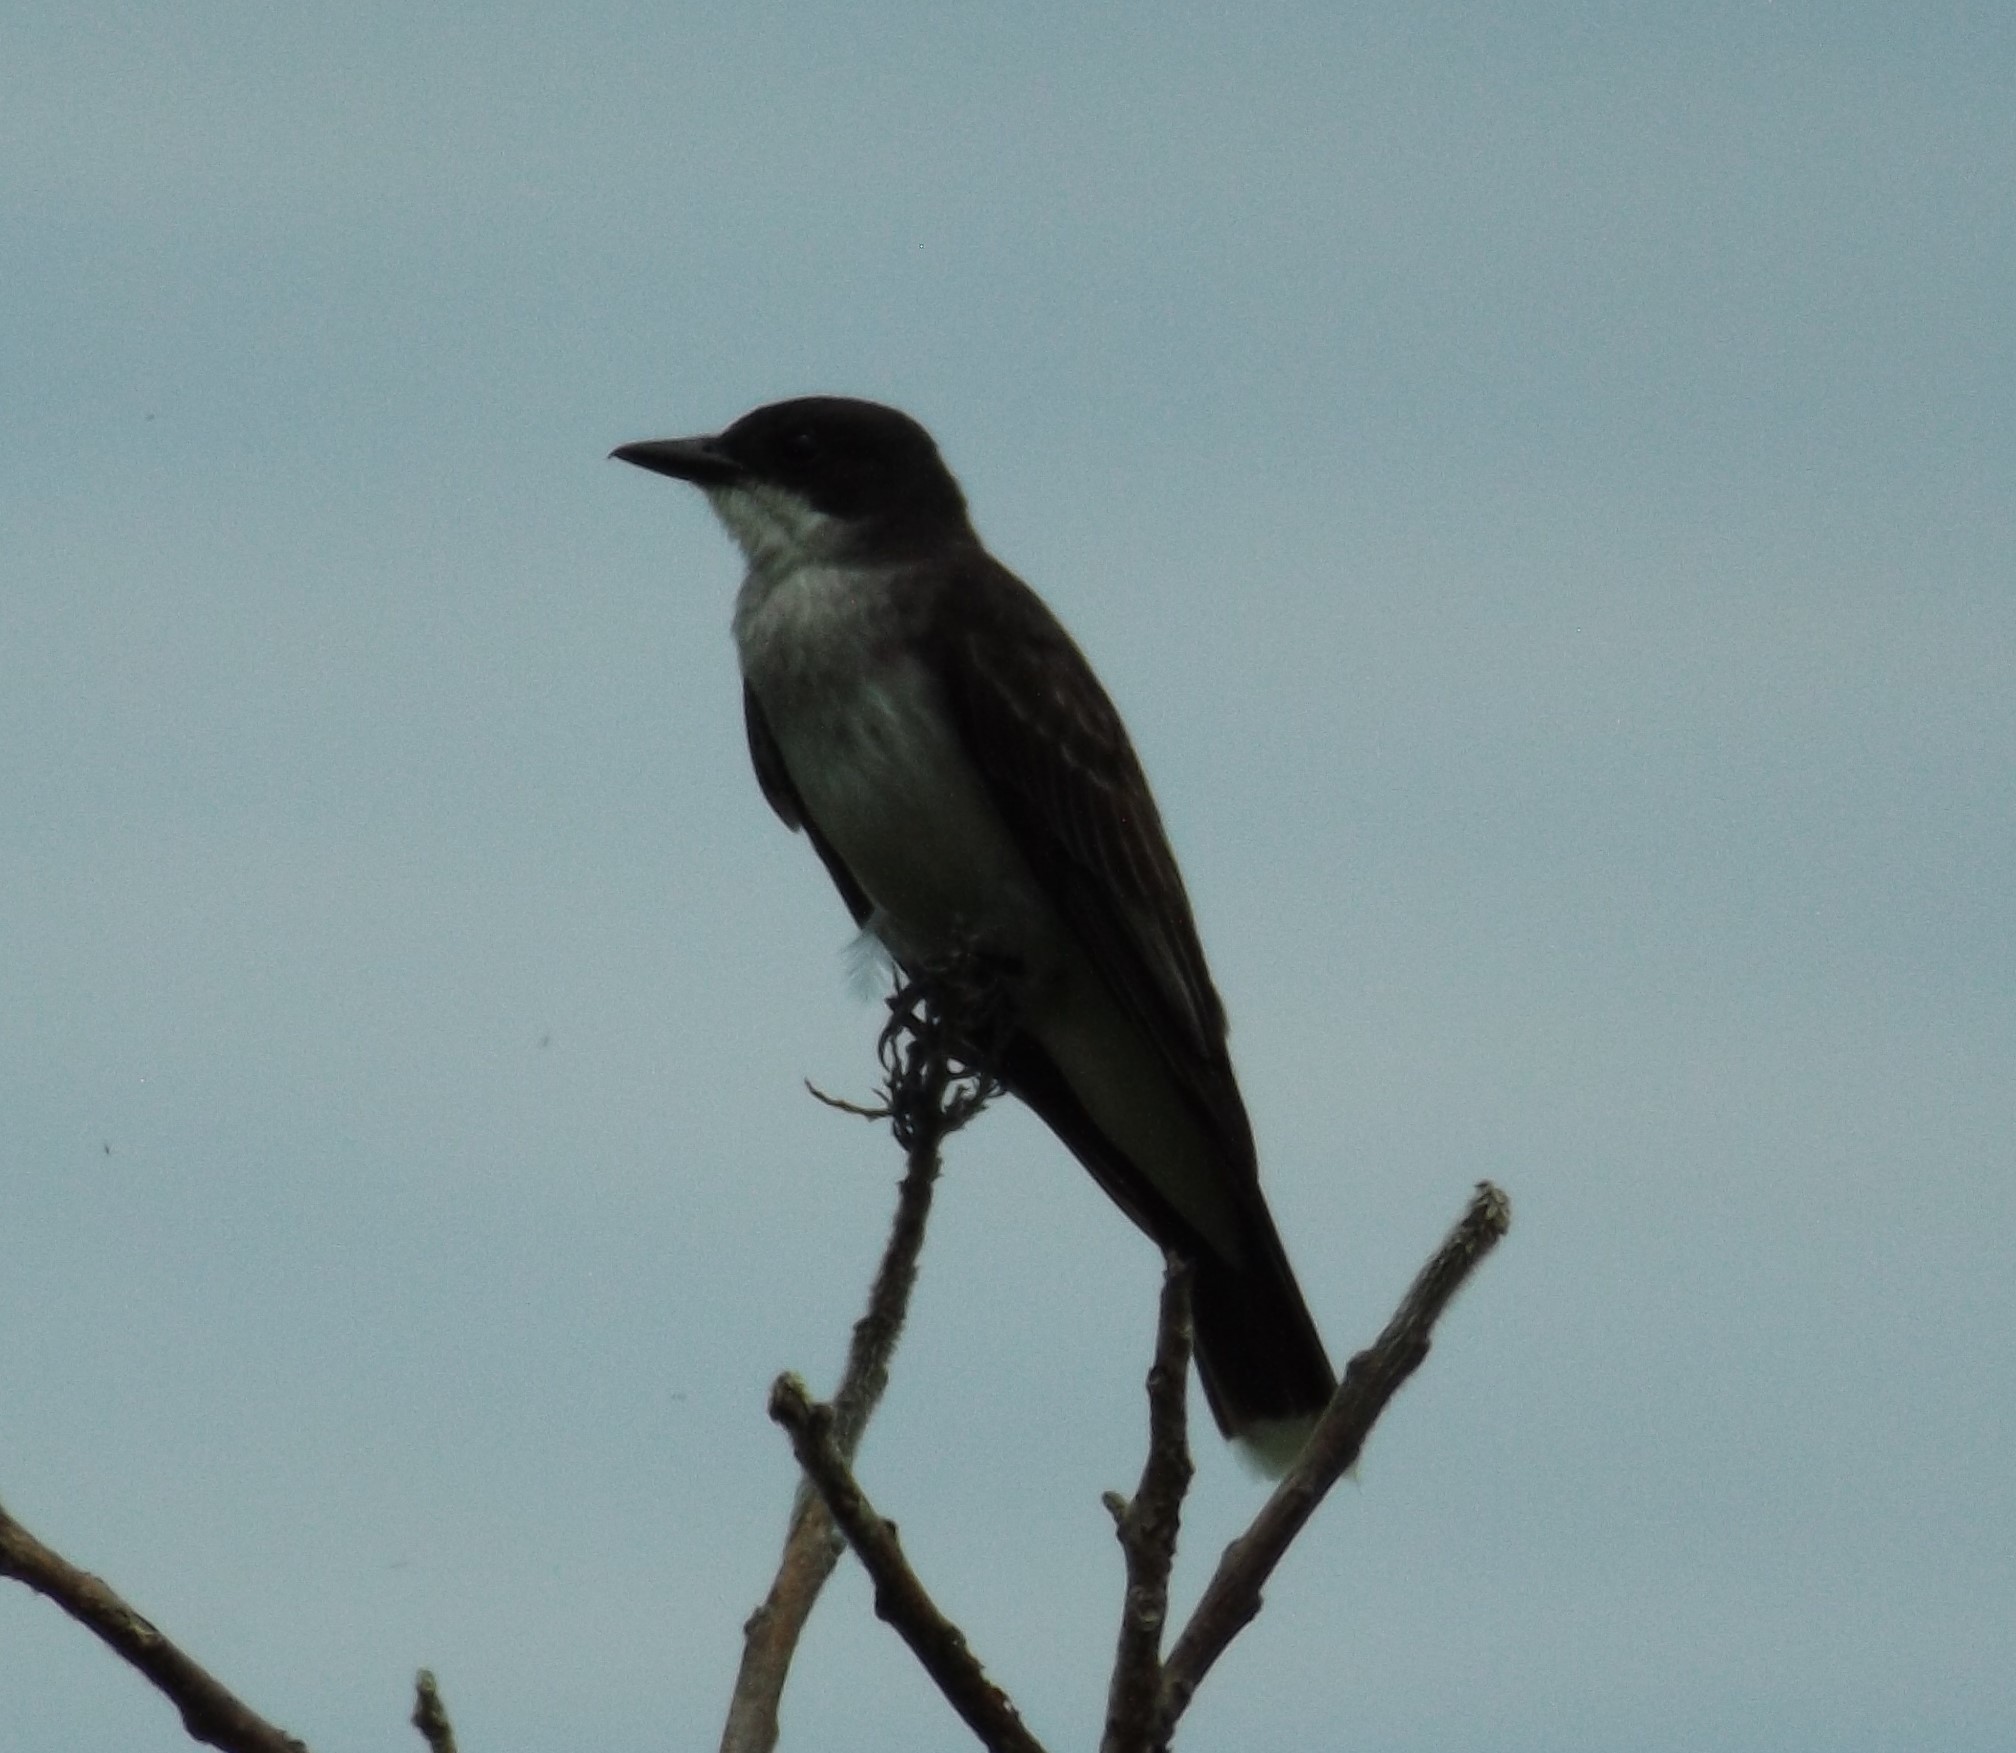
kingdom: Animalia
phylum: Chordata
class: Aves
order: Passeriformes
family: Tyrannidae
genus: Tyrannus
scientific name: Tyrannus tyrannus
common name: Eastern kingbird
